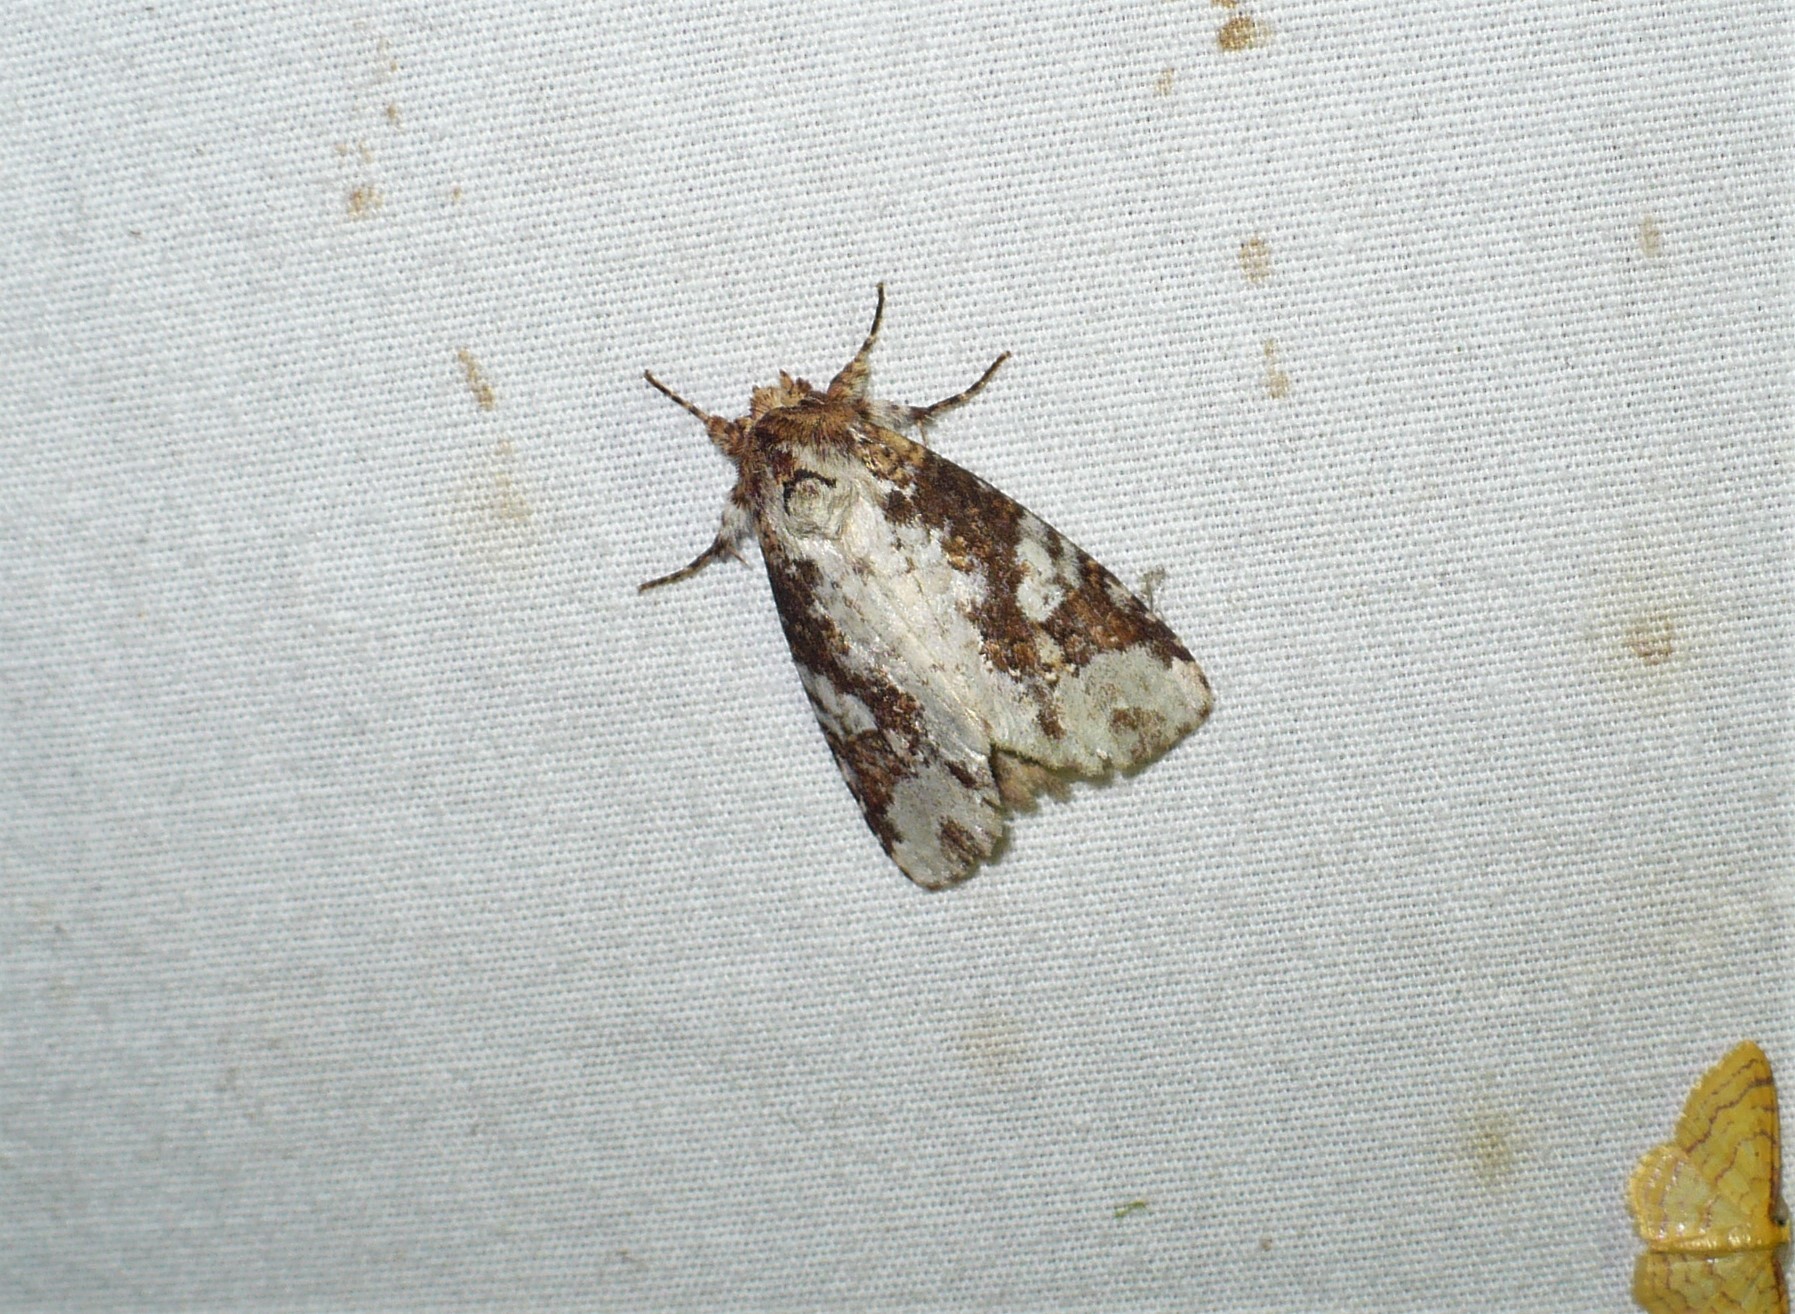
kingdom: Animalia
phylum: Arthropoda
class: Insecta
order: Lepidoptera
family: Notodontidae
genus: Disphragis
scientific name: Disphragis tharis
